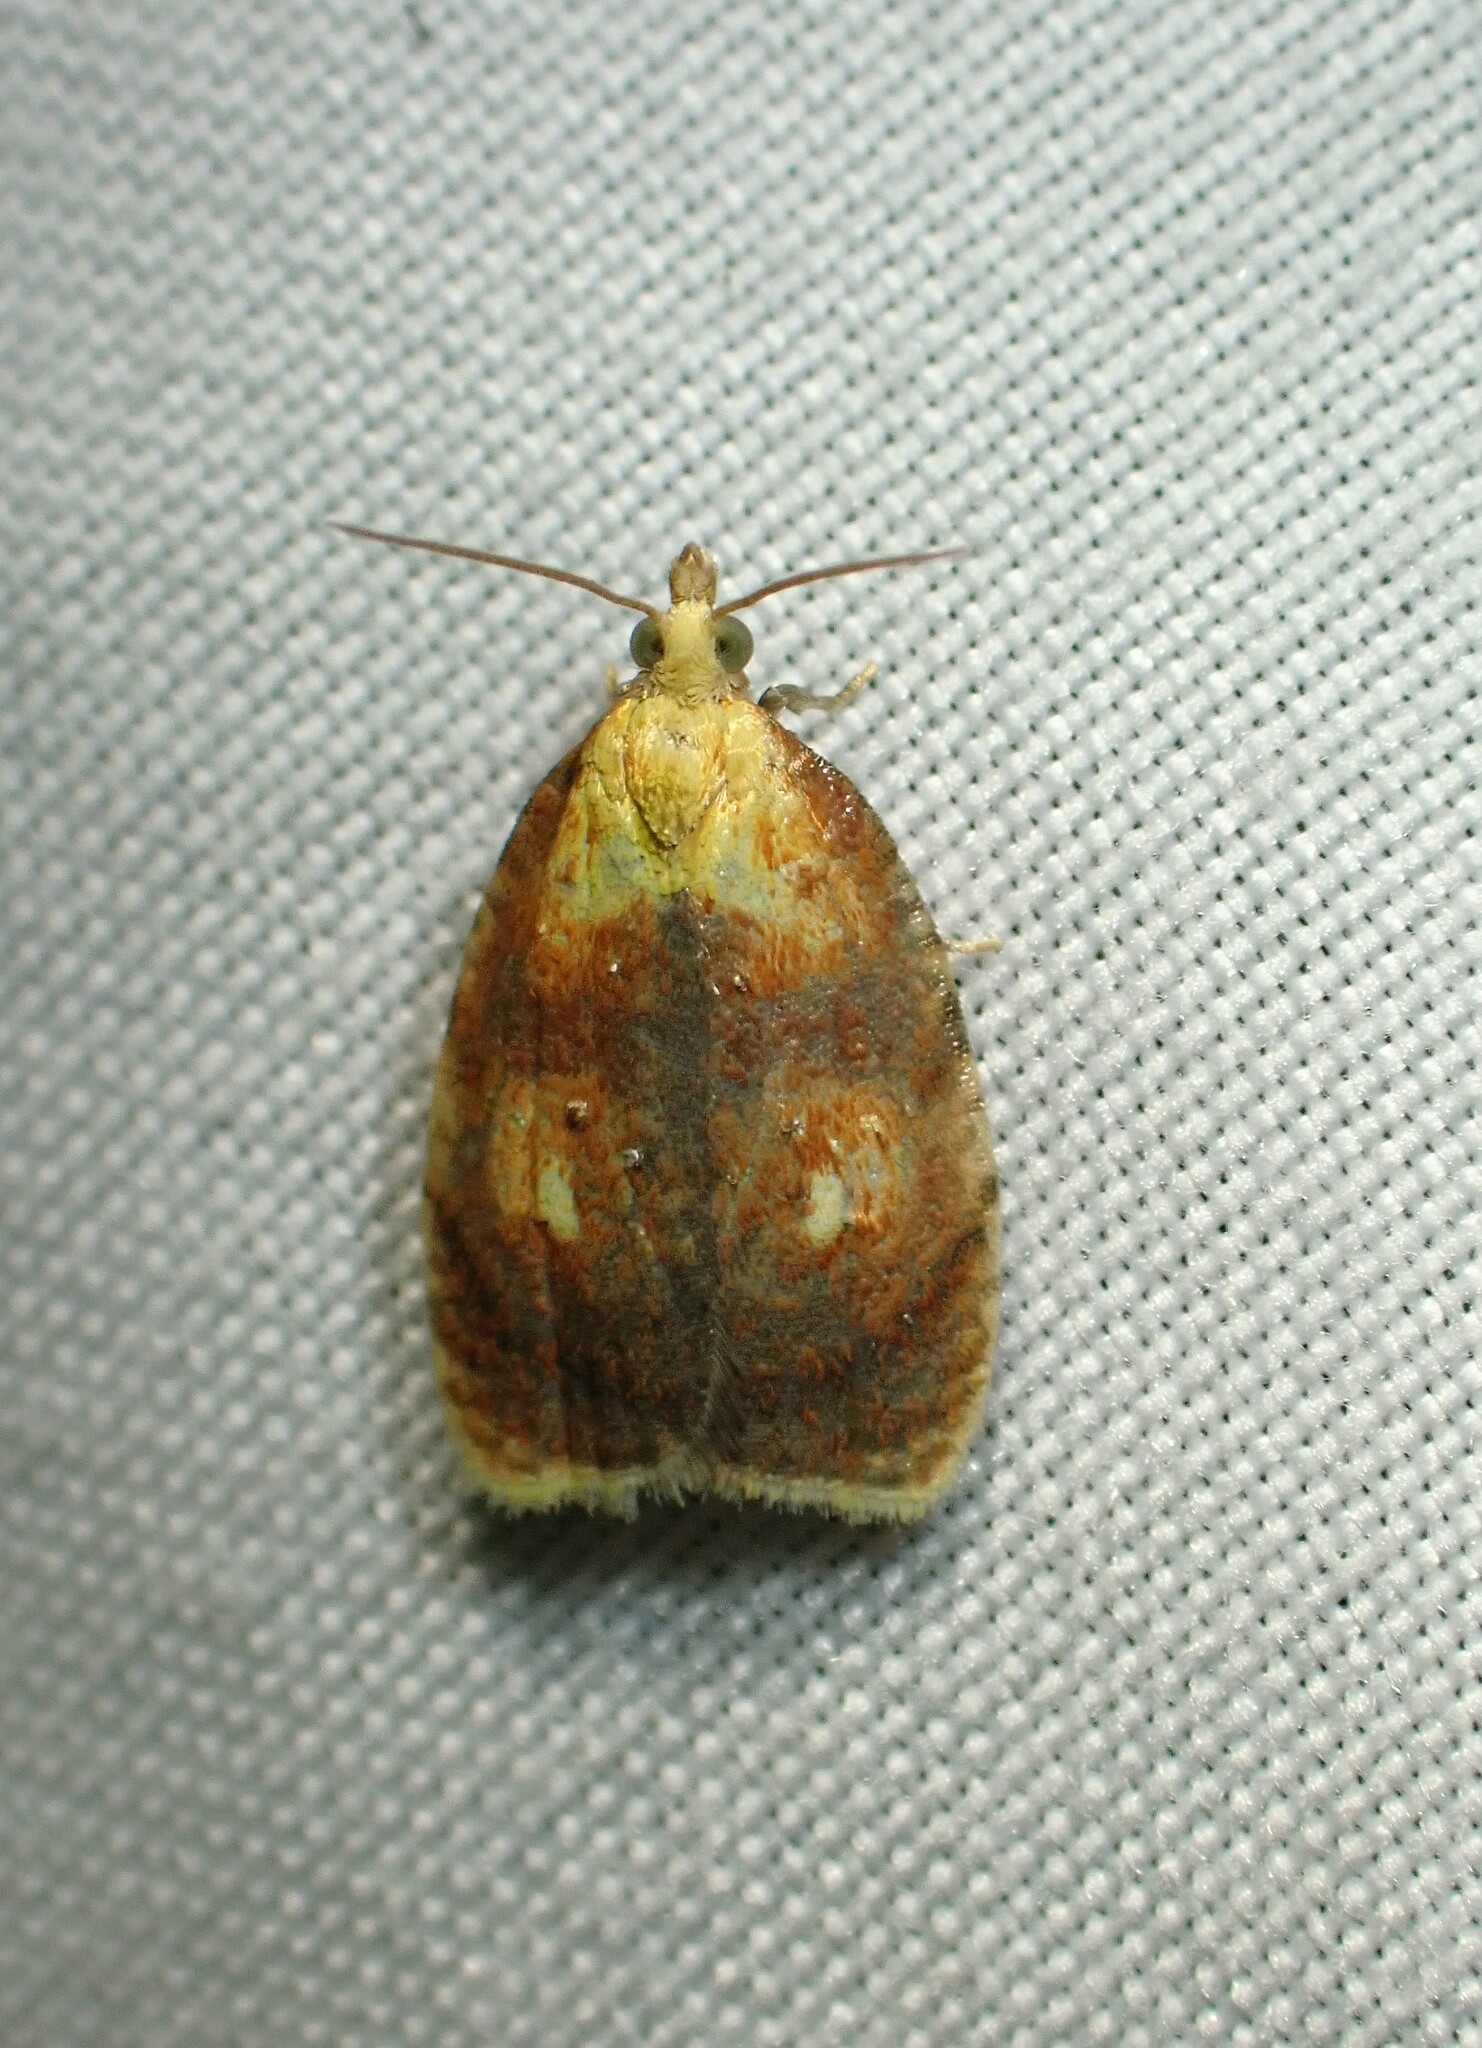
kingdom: Animalia
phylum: Arthropoda
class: Insecta
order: Lepidoptera
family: Tortricidae
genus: Acleris
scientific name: Acleris curvalana
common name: Blueberry leaftier moth
